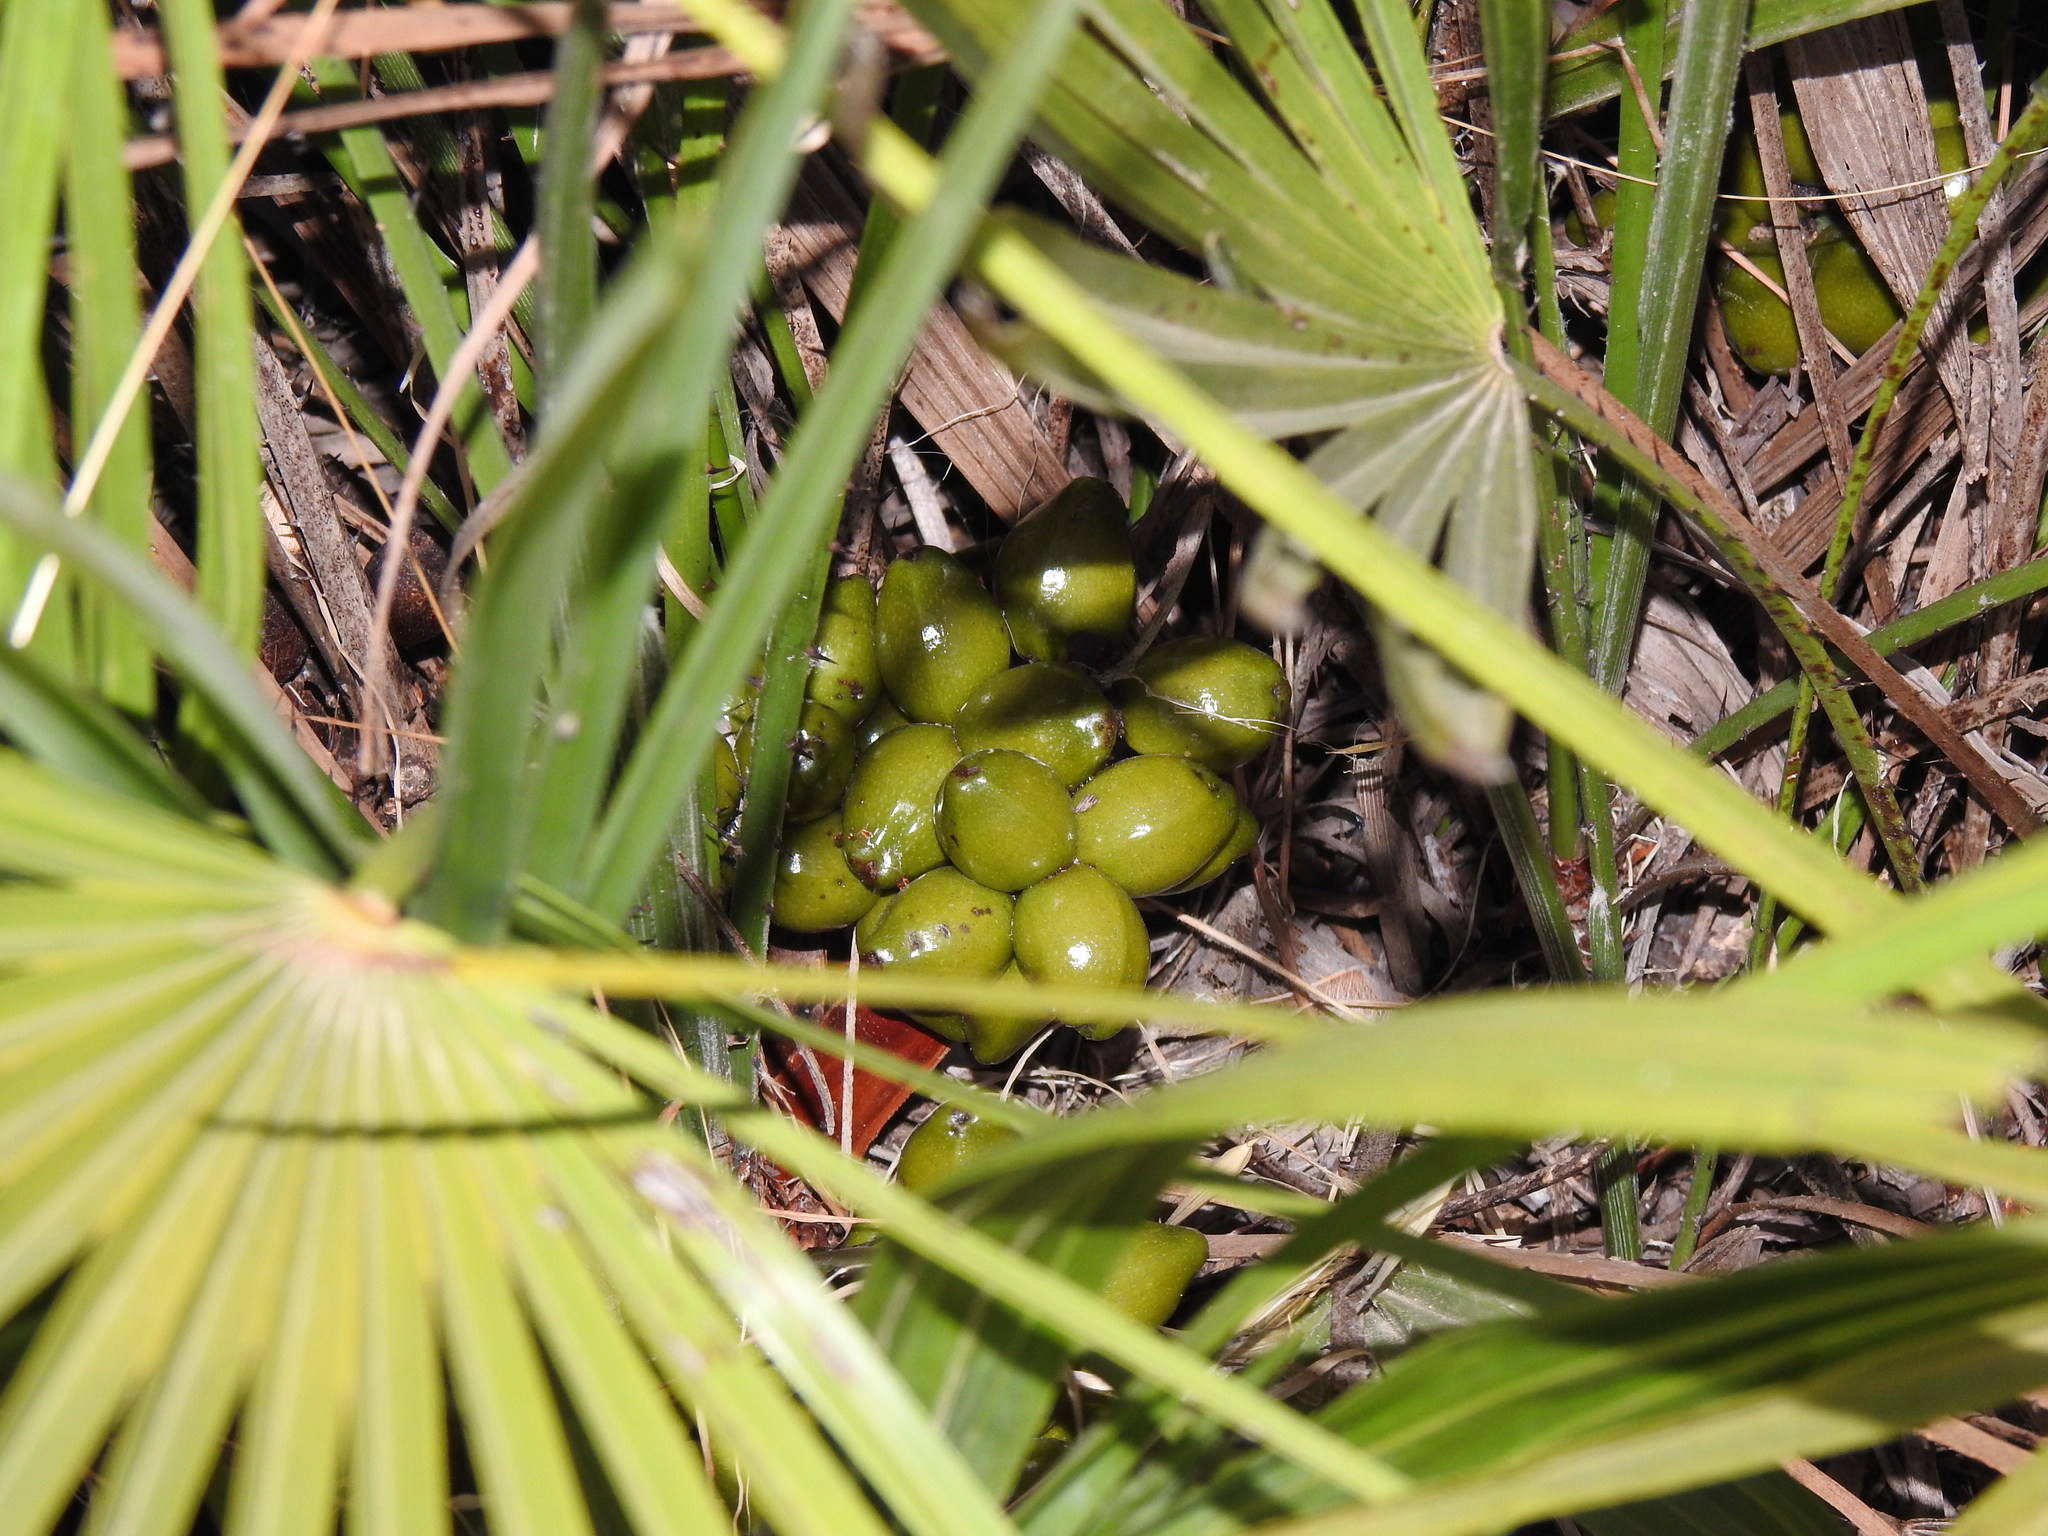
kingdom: Plantae
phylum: Tracheophyta
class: Liliopsida
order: Arecales
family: Arecaceae
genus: Chamaerops
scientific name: Chamaerops humilis
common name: Dwarf fan palm
